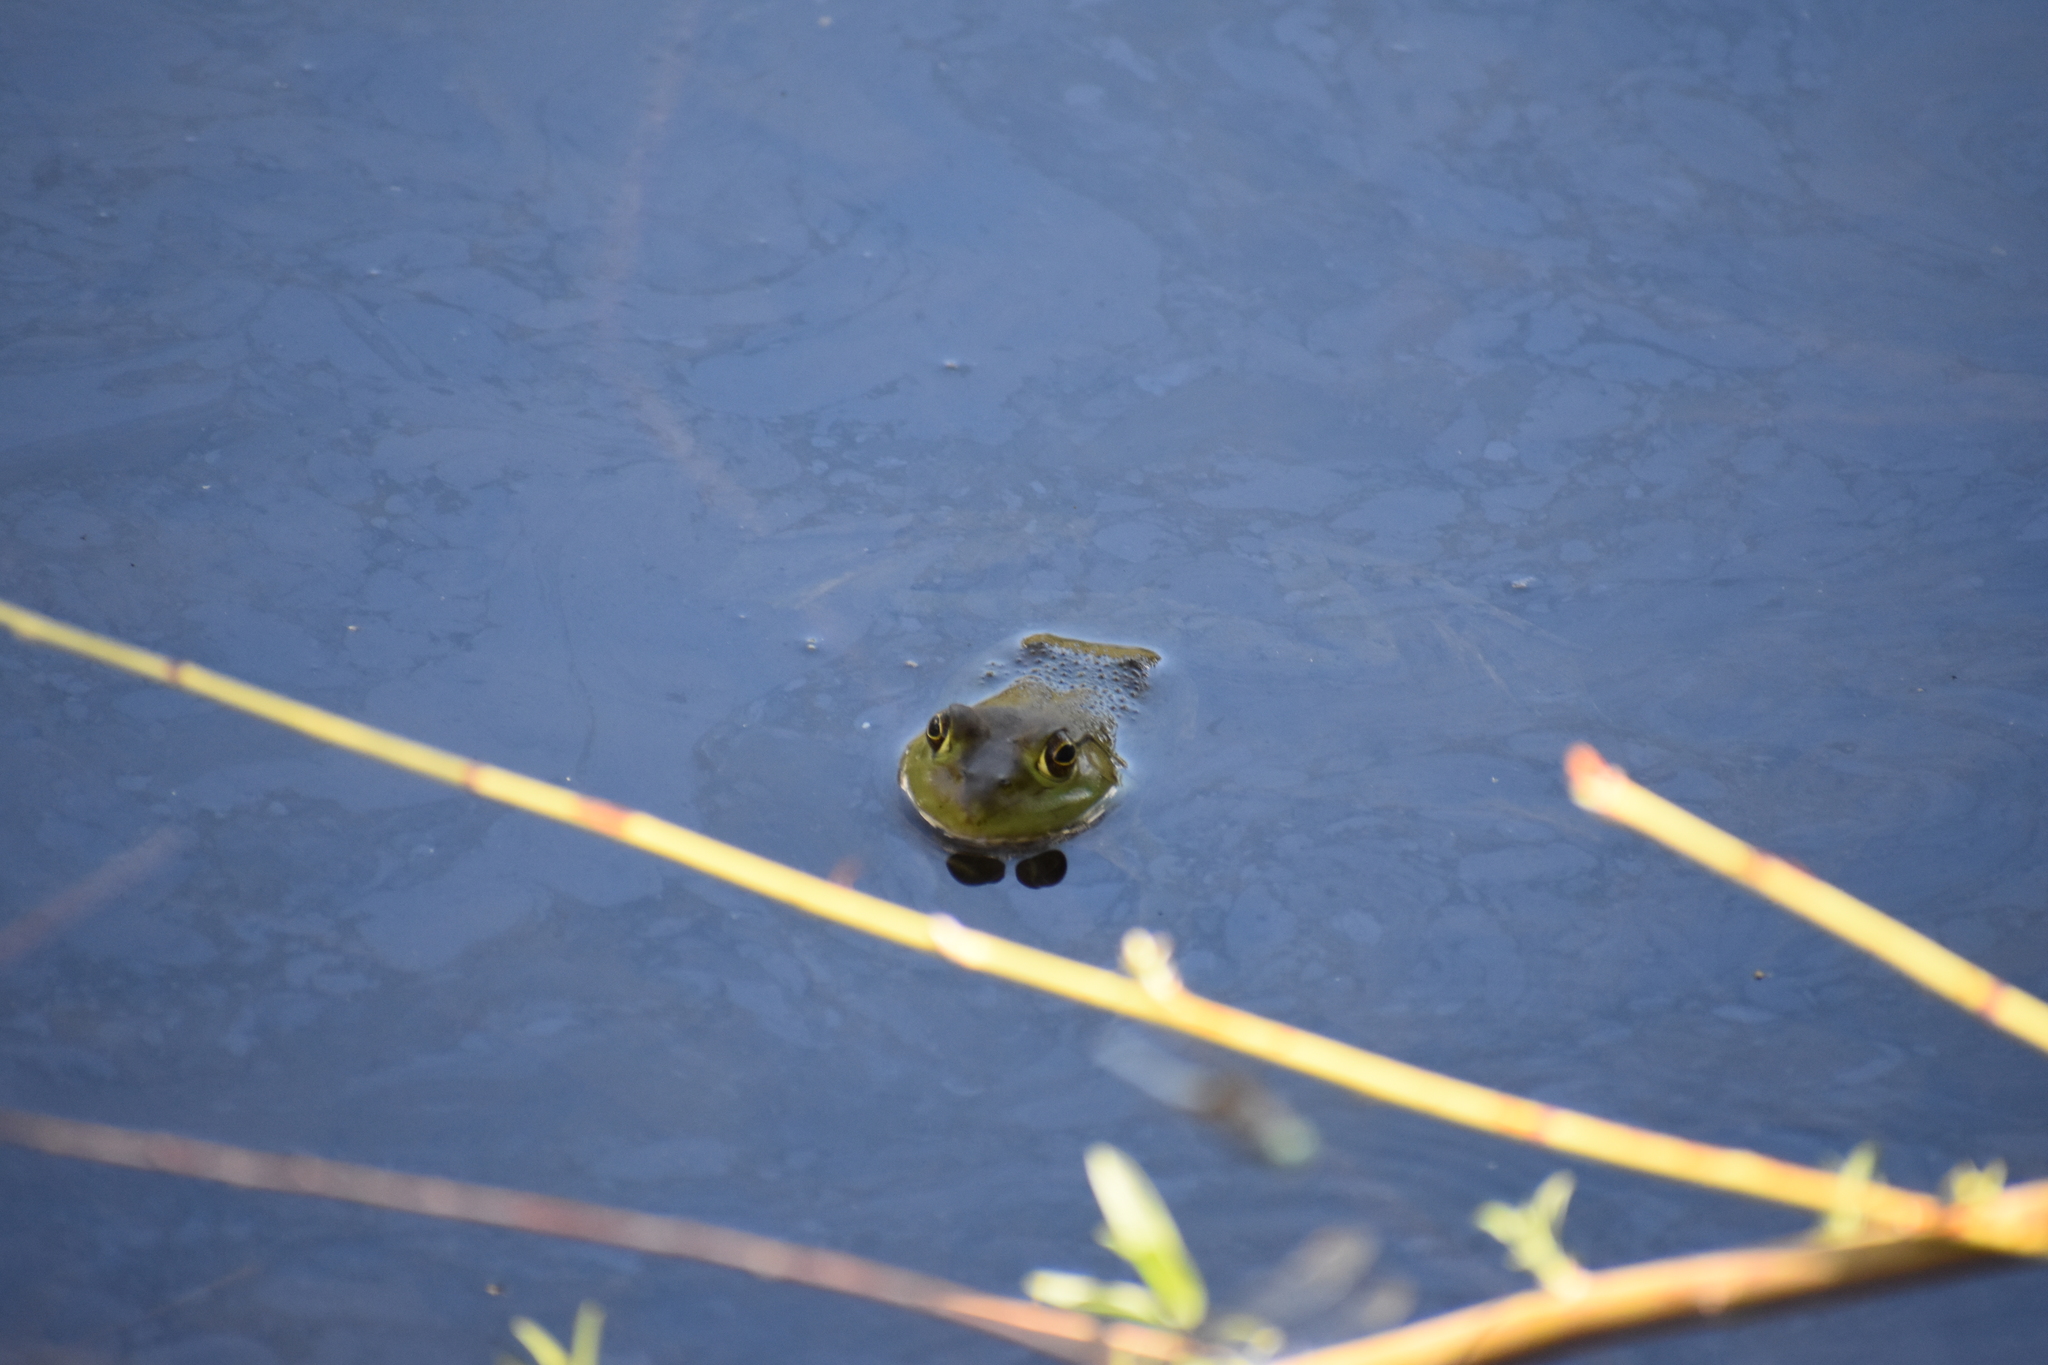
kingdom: Animalia
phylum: Chordata
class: Amphibia
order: Anura
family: Ranidae
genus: Lithobates
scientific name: Lithobates catesbeianus
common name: American bullfrog
